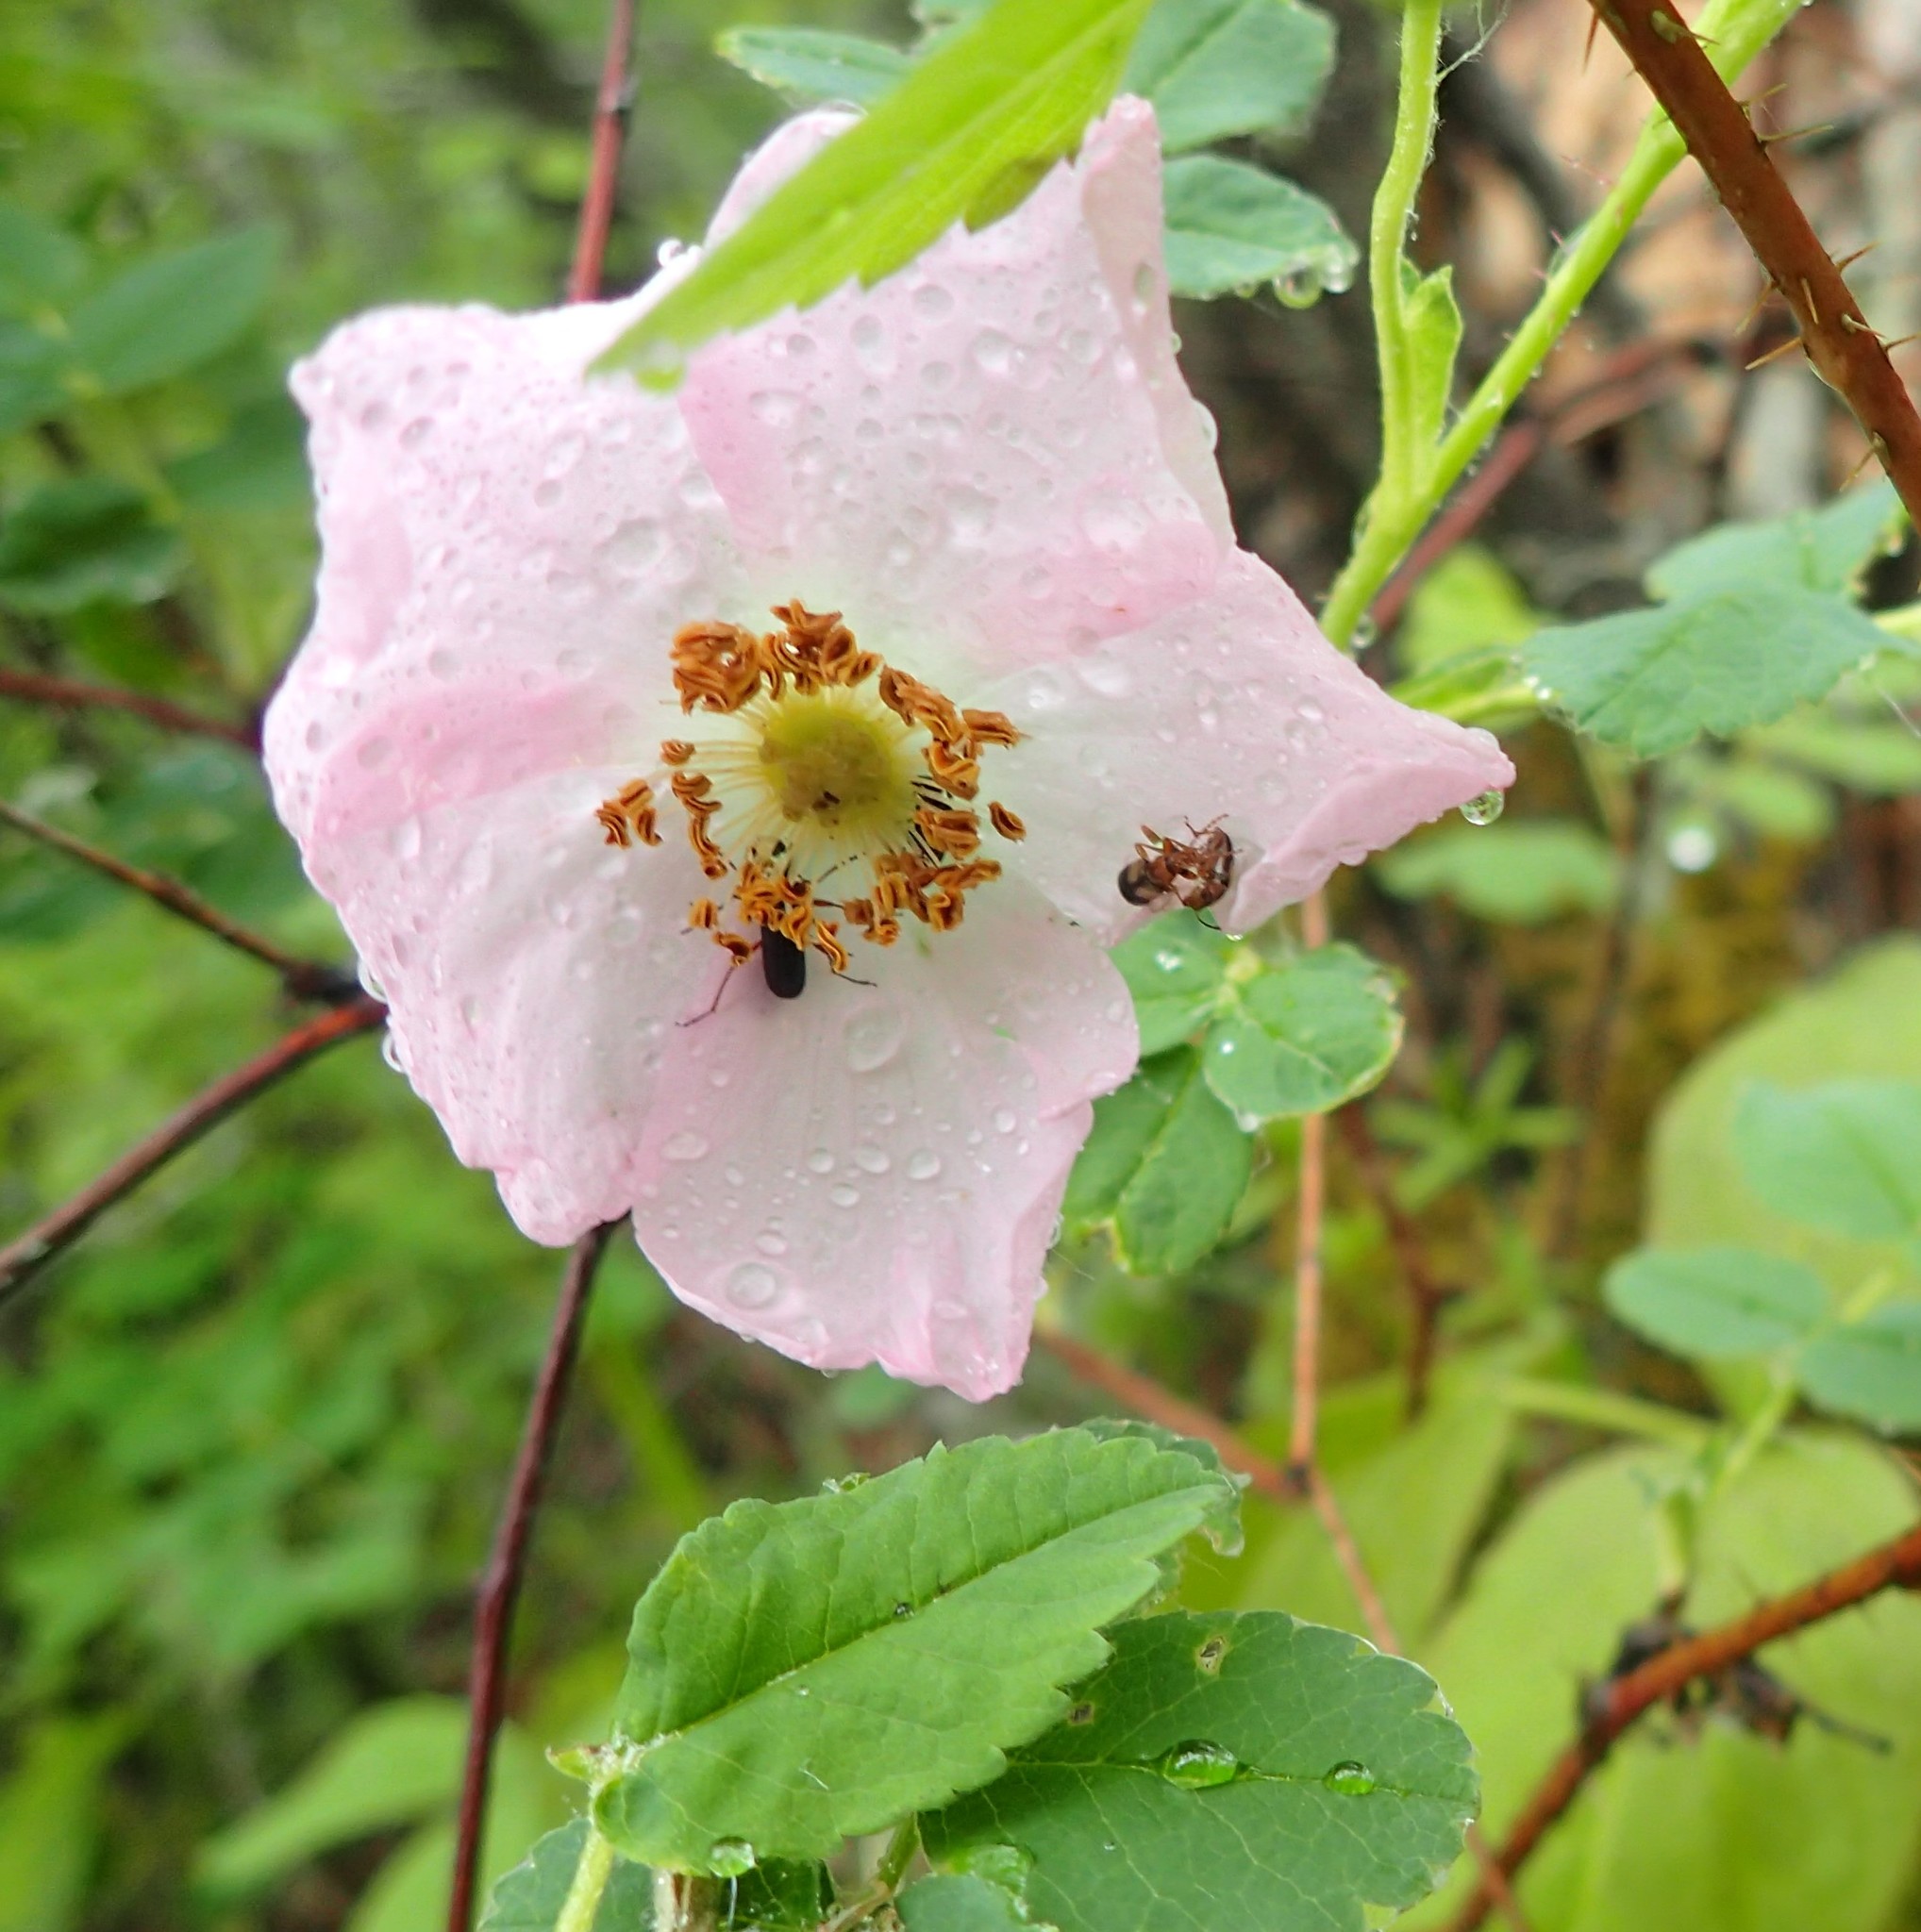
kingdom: Plantae
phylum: Tracheophyta
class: Magnoliopsida
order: Rosales
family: Rosaceae
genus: Rosa
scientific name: Rosa acicularis
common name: Prickly rose
